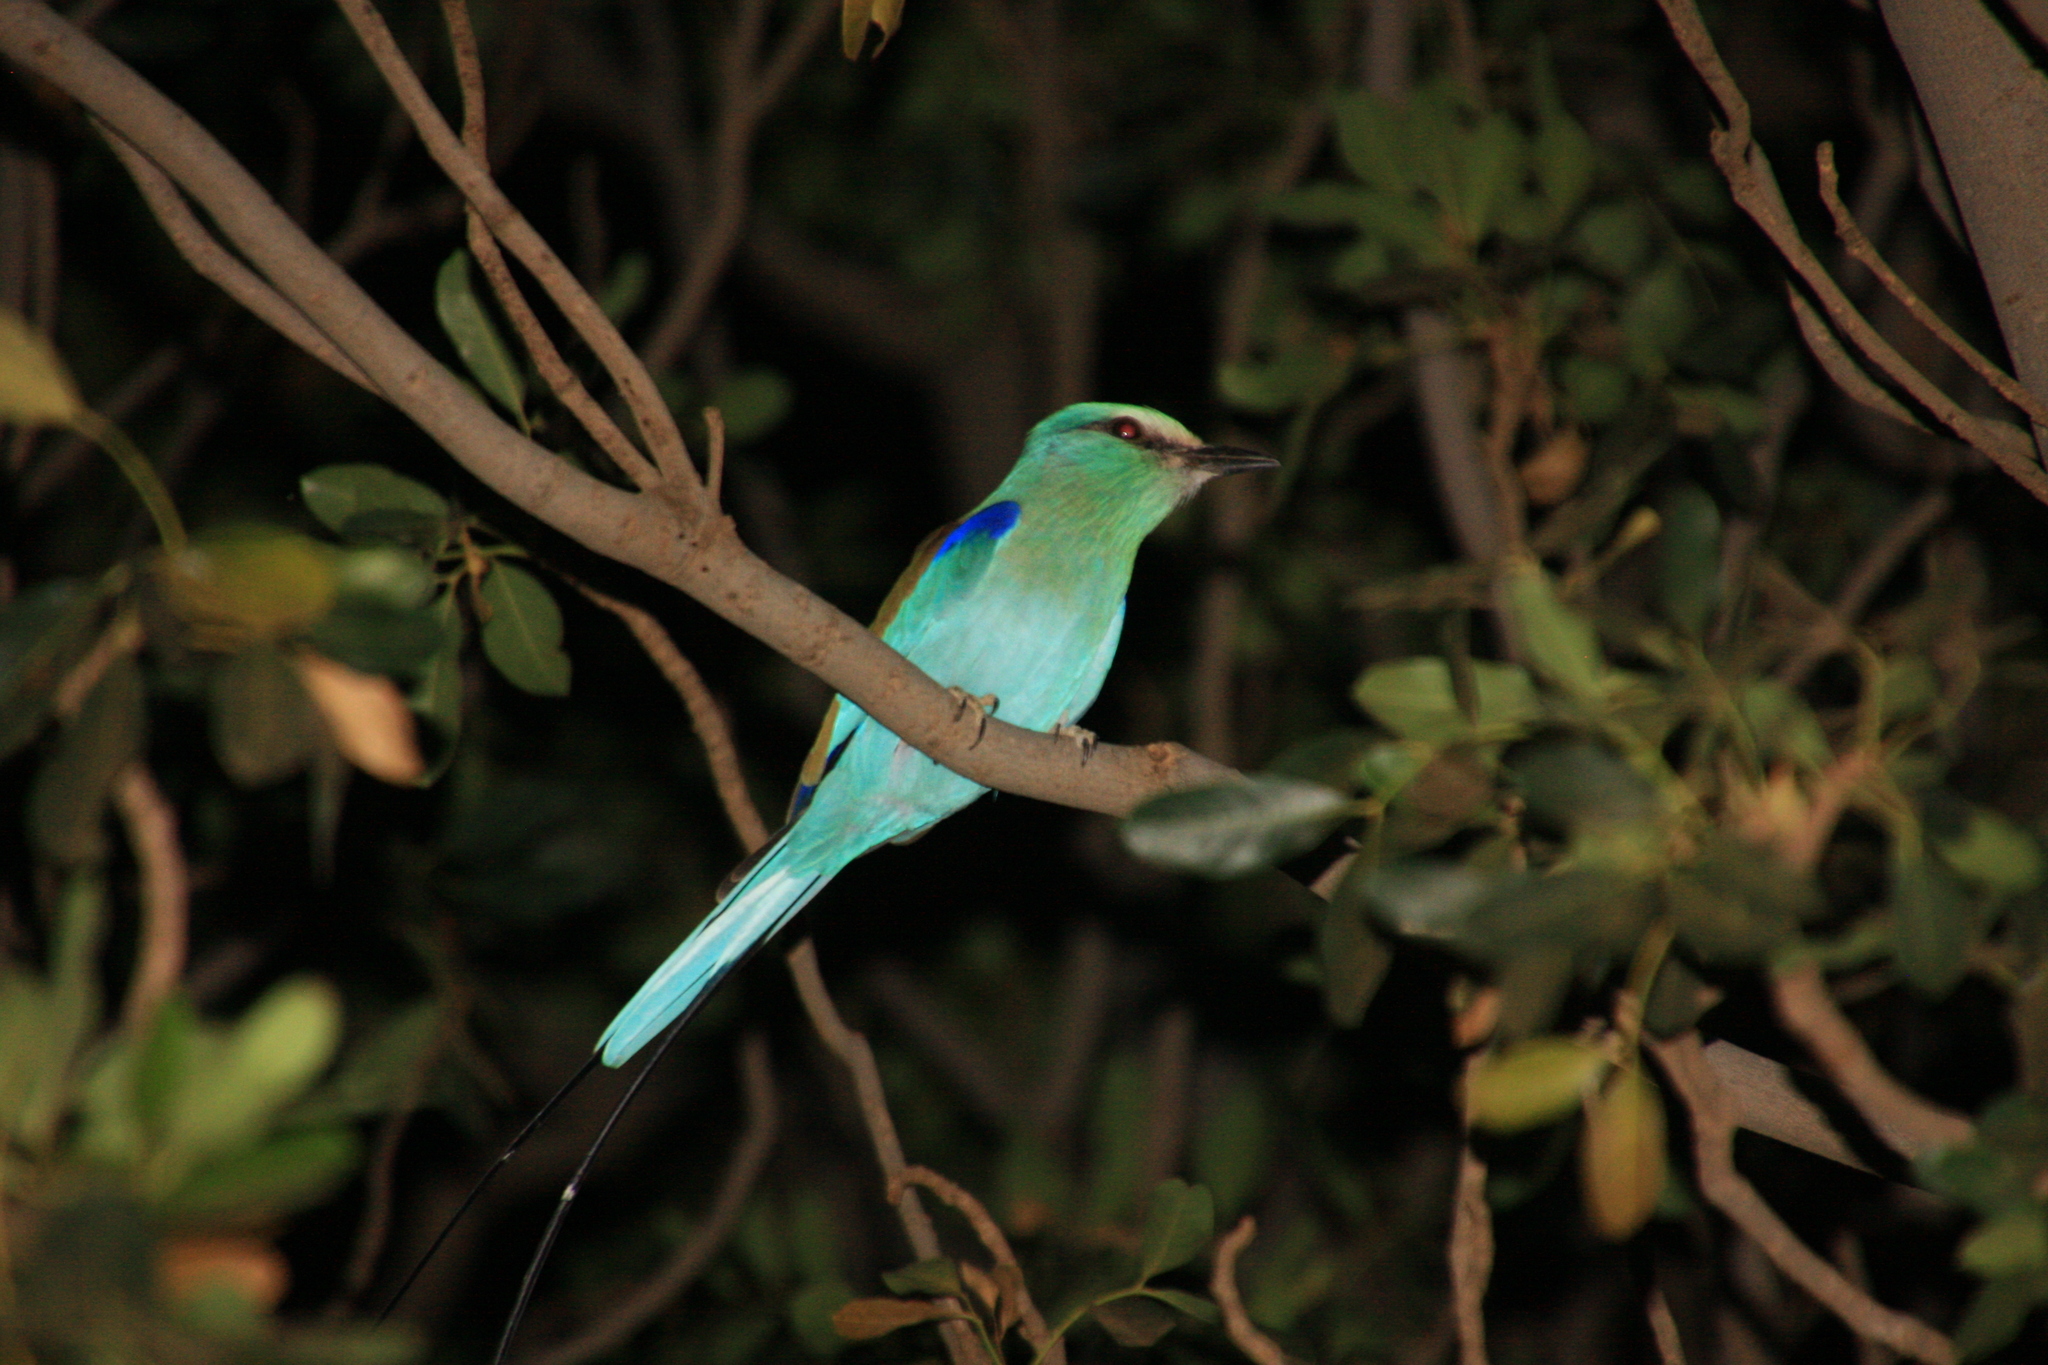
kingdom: Animalia
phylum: Chordata
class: Aves
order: Coraciiformes
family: Coraciidae
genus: Coracias
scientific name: Coracias abyssinicus
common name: Abyssinian roller
